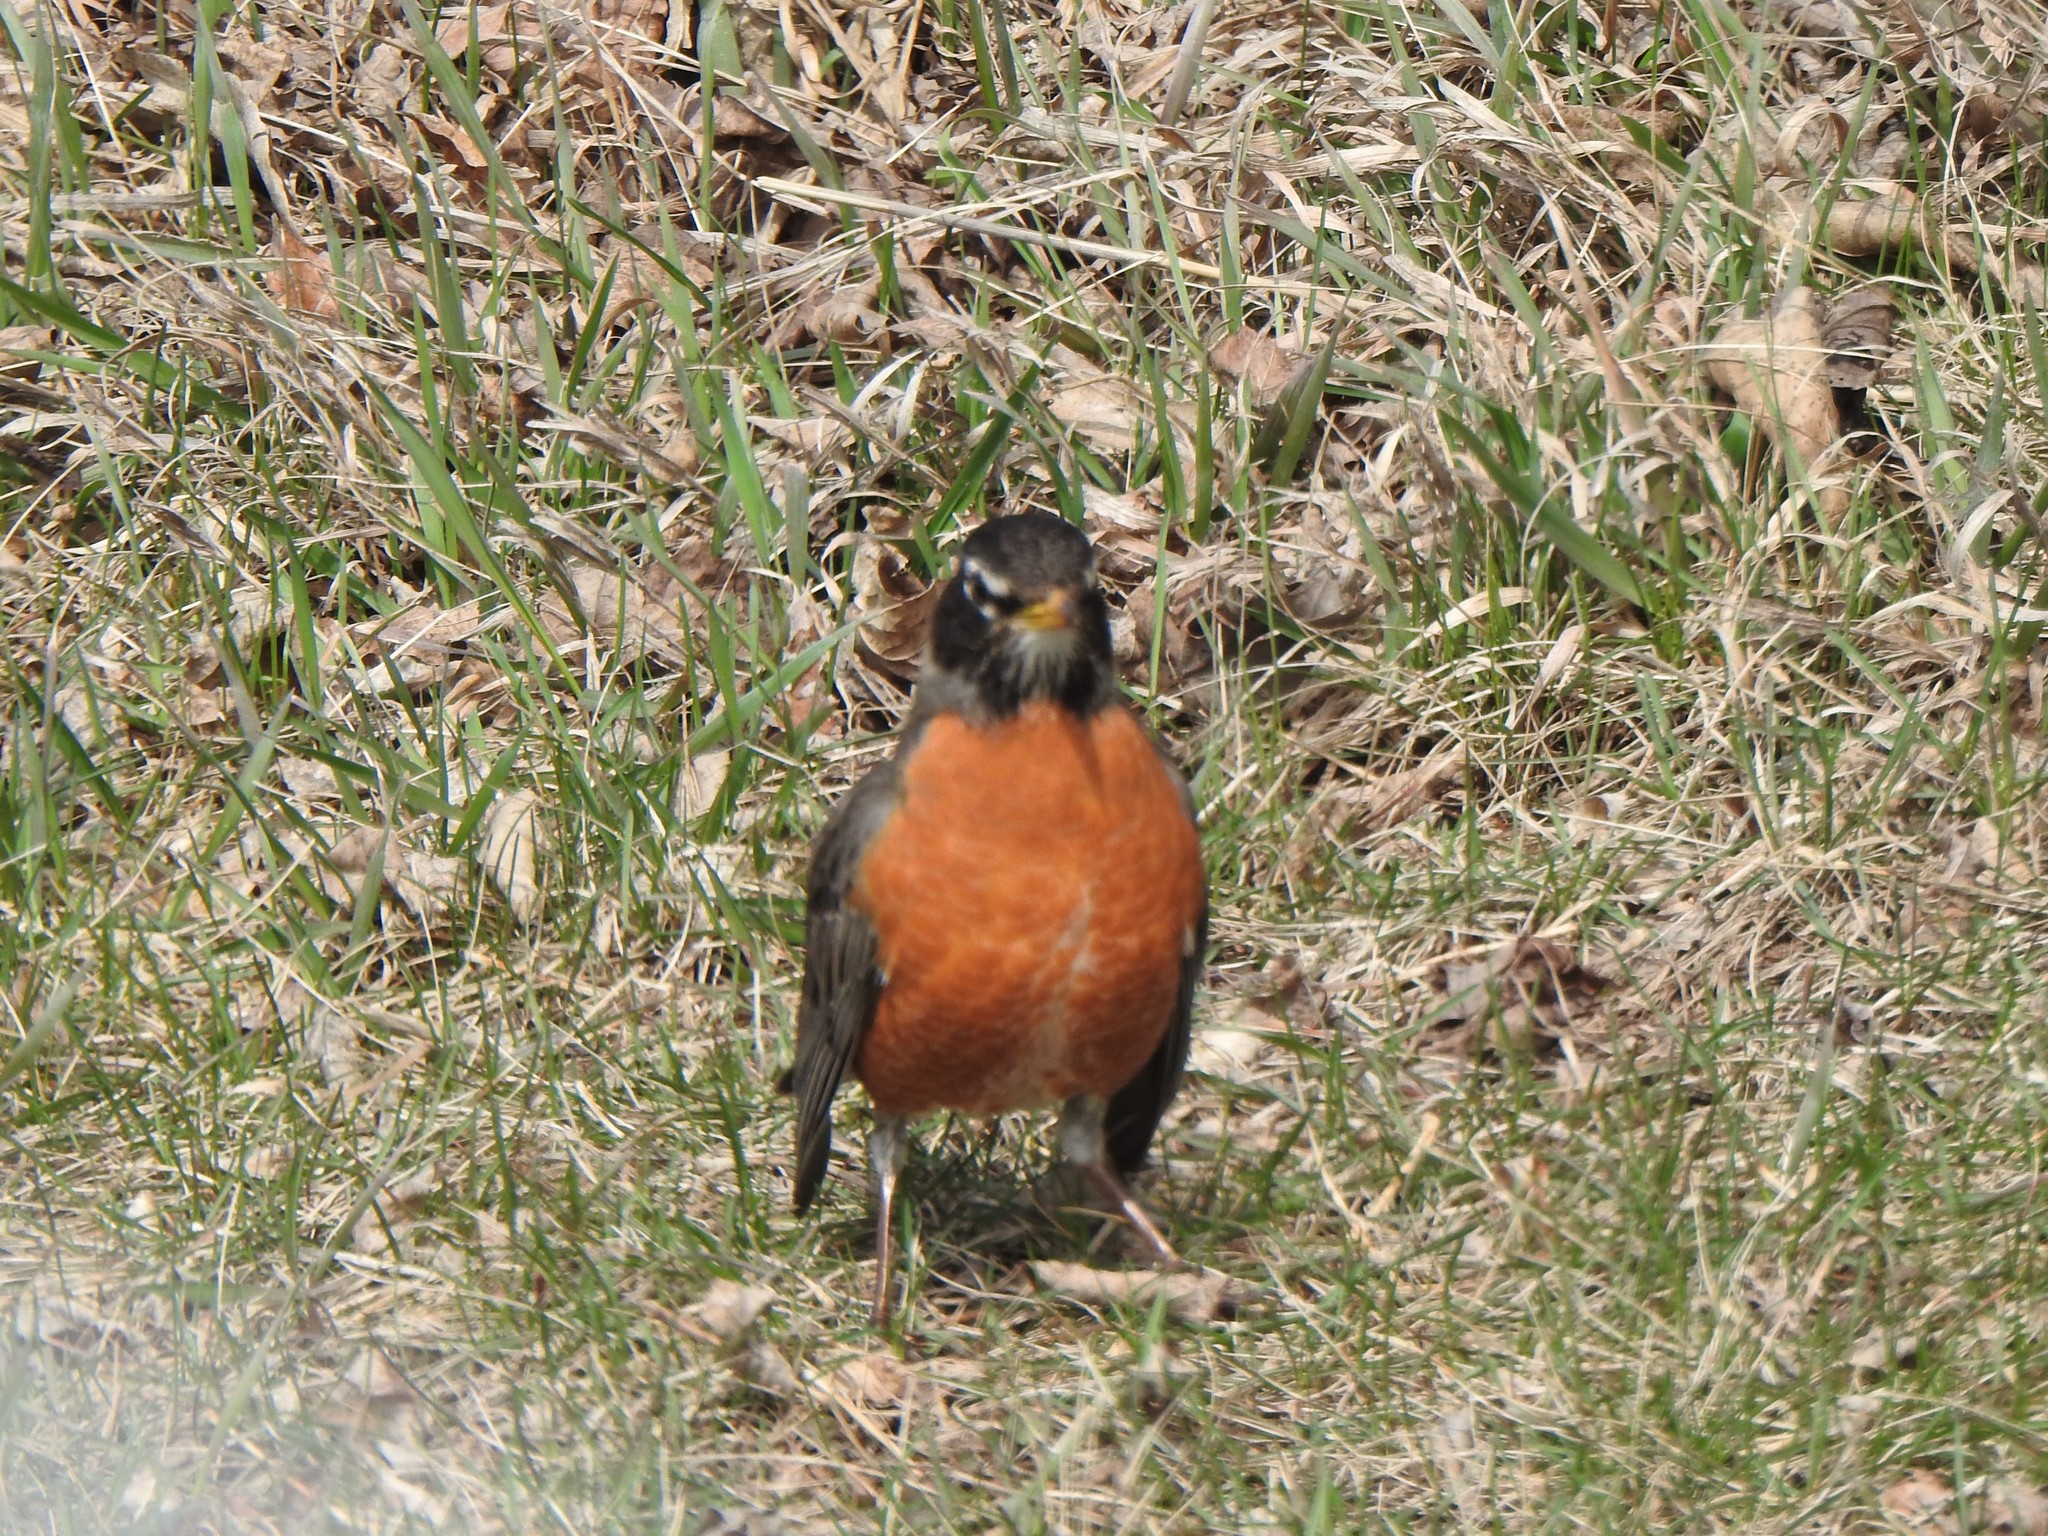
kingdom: Animalia
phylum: Chordata
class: Aves
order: Passeriformes
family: Turdidae
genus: Turdus
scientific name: Turdus migratorius
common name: American robin
